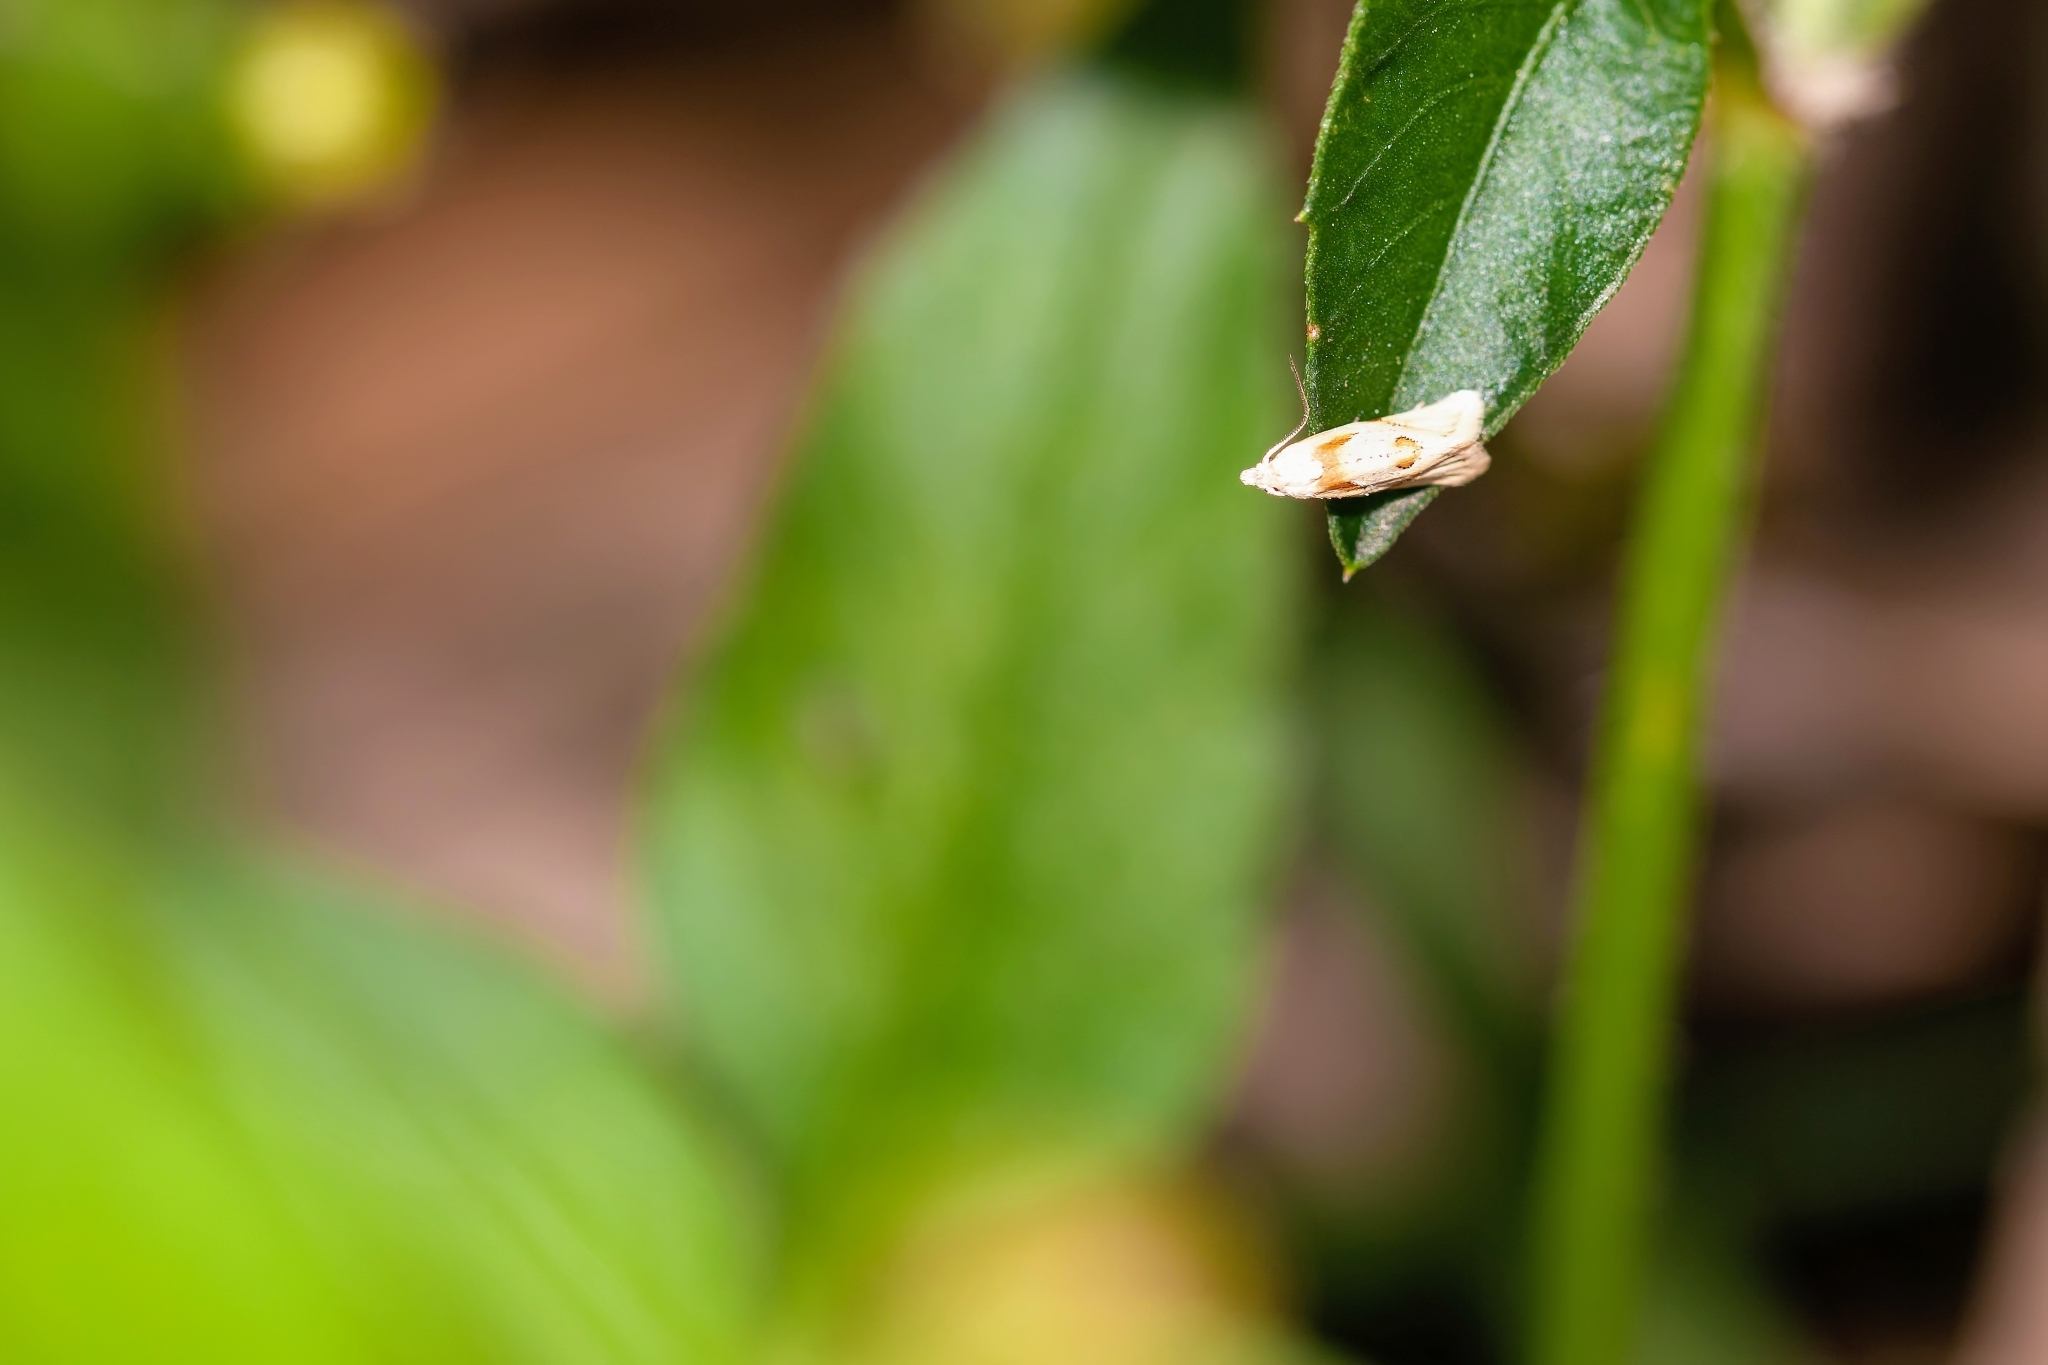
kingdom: Animalia
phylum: Arthropoda
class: Insecta
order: Lepidoptera
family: Tortricidae
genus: Aethes
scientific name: Aethes seriatana
